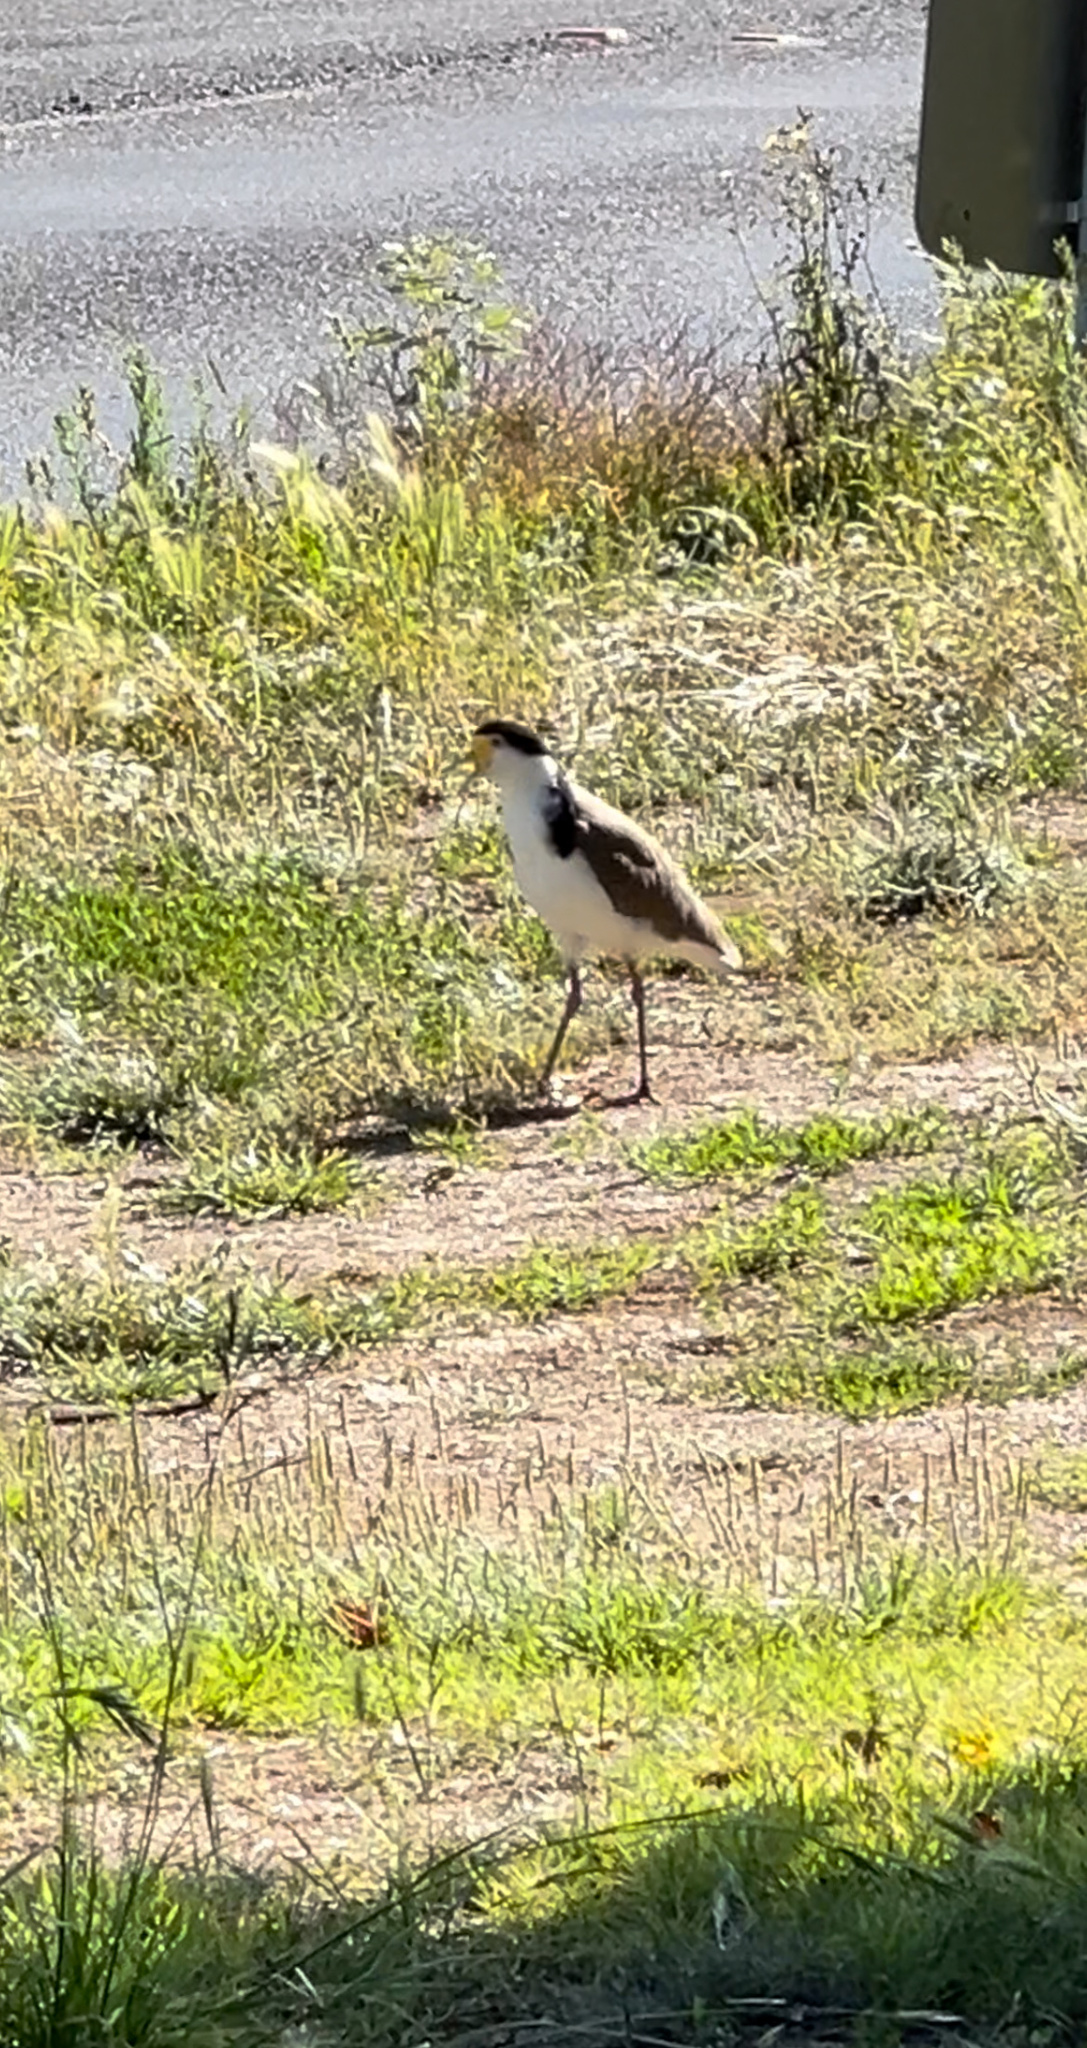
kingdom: Animalia
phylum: Chordata
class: Aves
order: Charadriiformes
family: Charadriidae
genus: Vanellus
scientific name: Vanellus miles
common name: Masked lapwing
